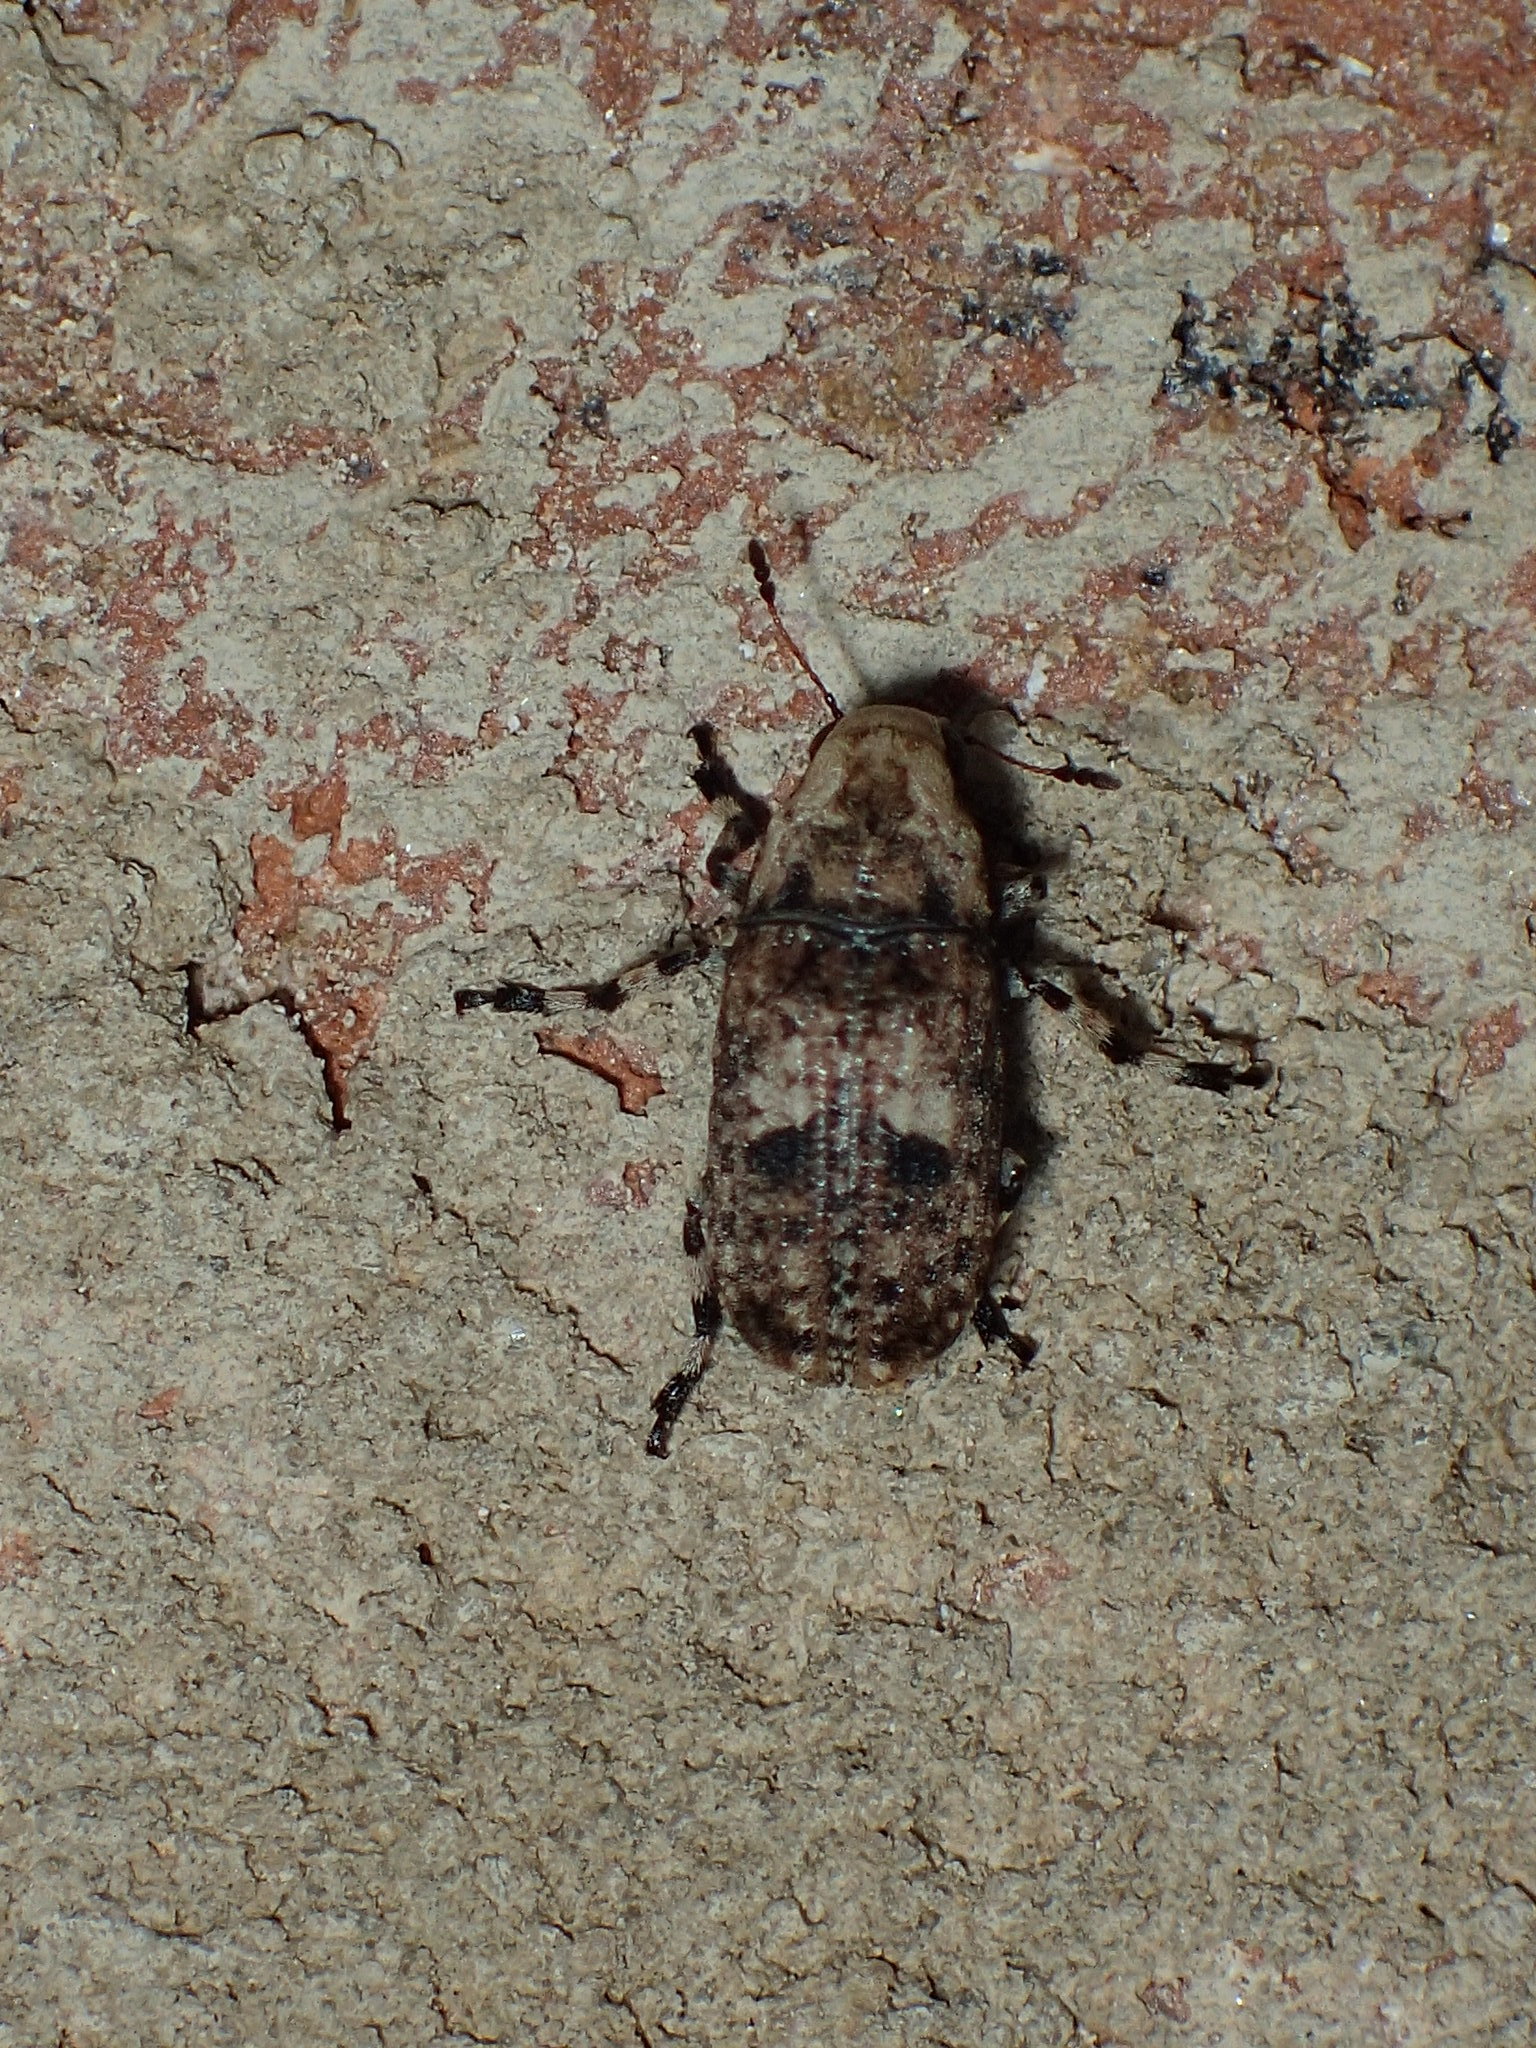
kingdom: Animalia
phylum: Arthropoda
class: Insecta
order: Coleoptera
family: Anthribidae
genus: Euparius
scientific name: Euparius marmoreus
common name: Marbled fungus weevil
